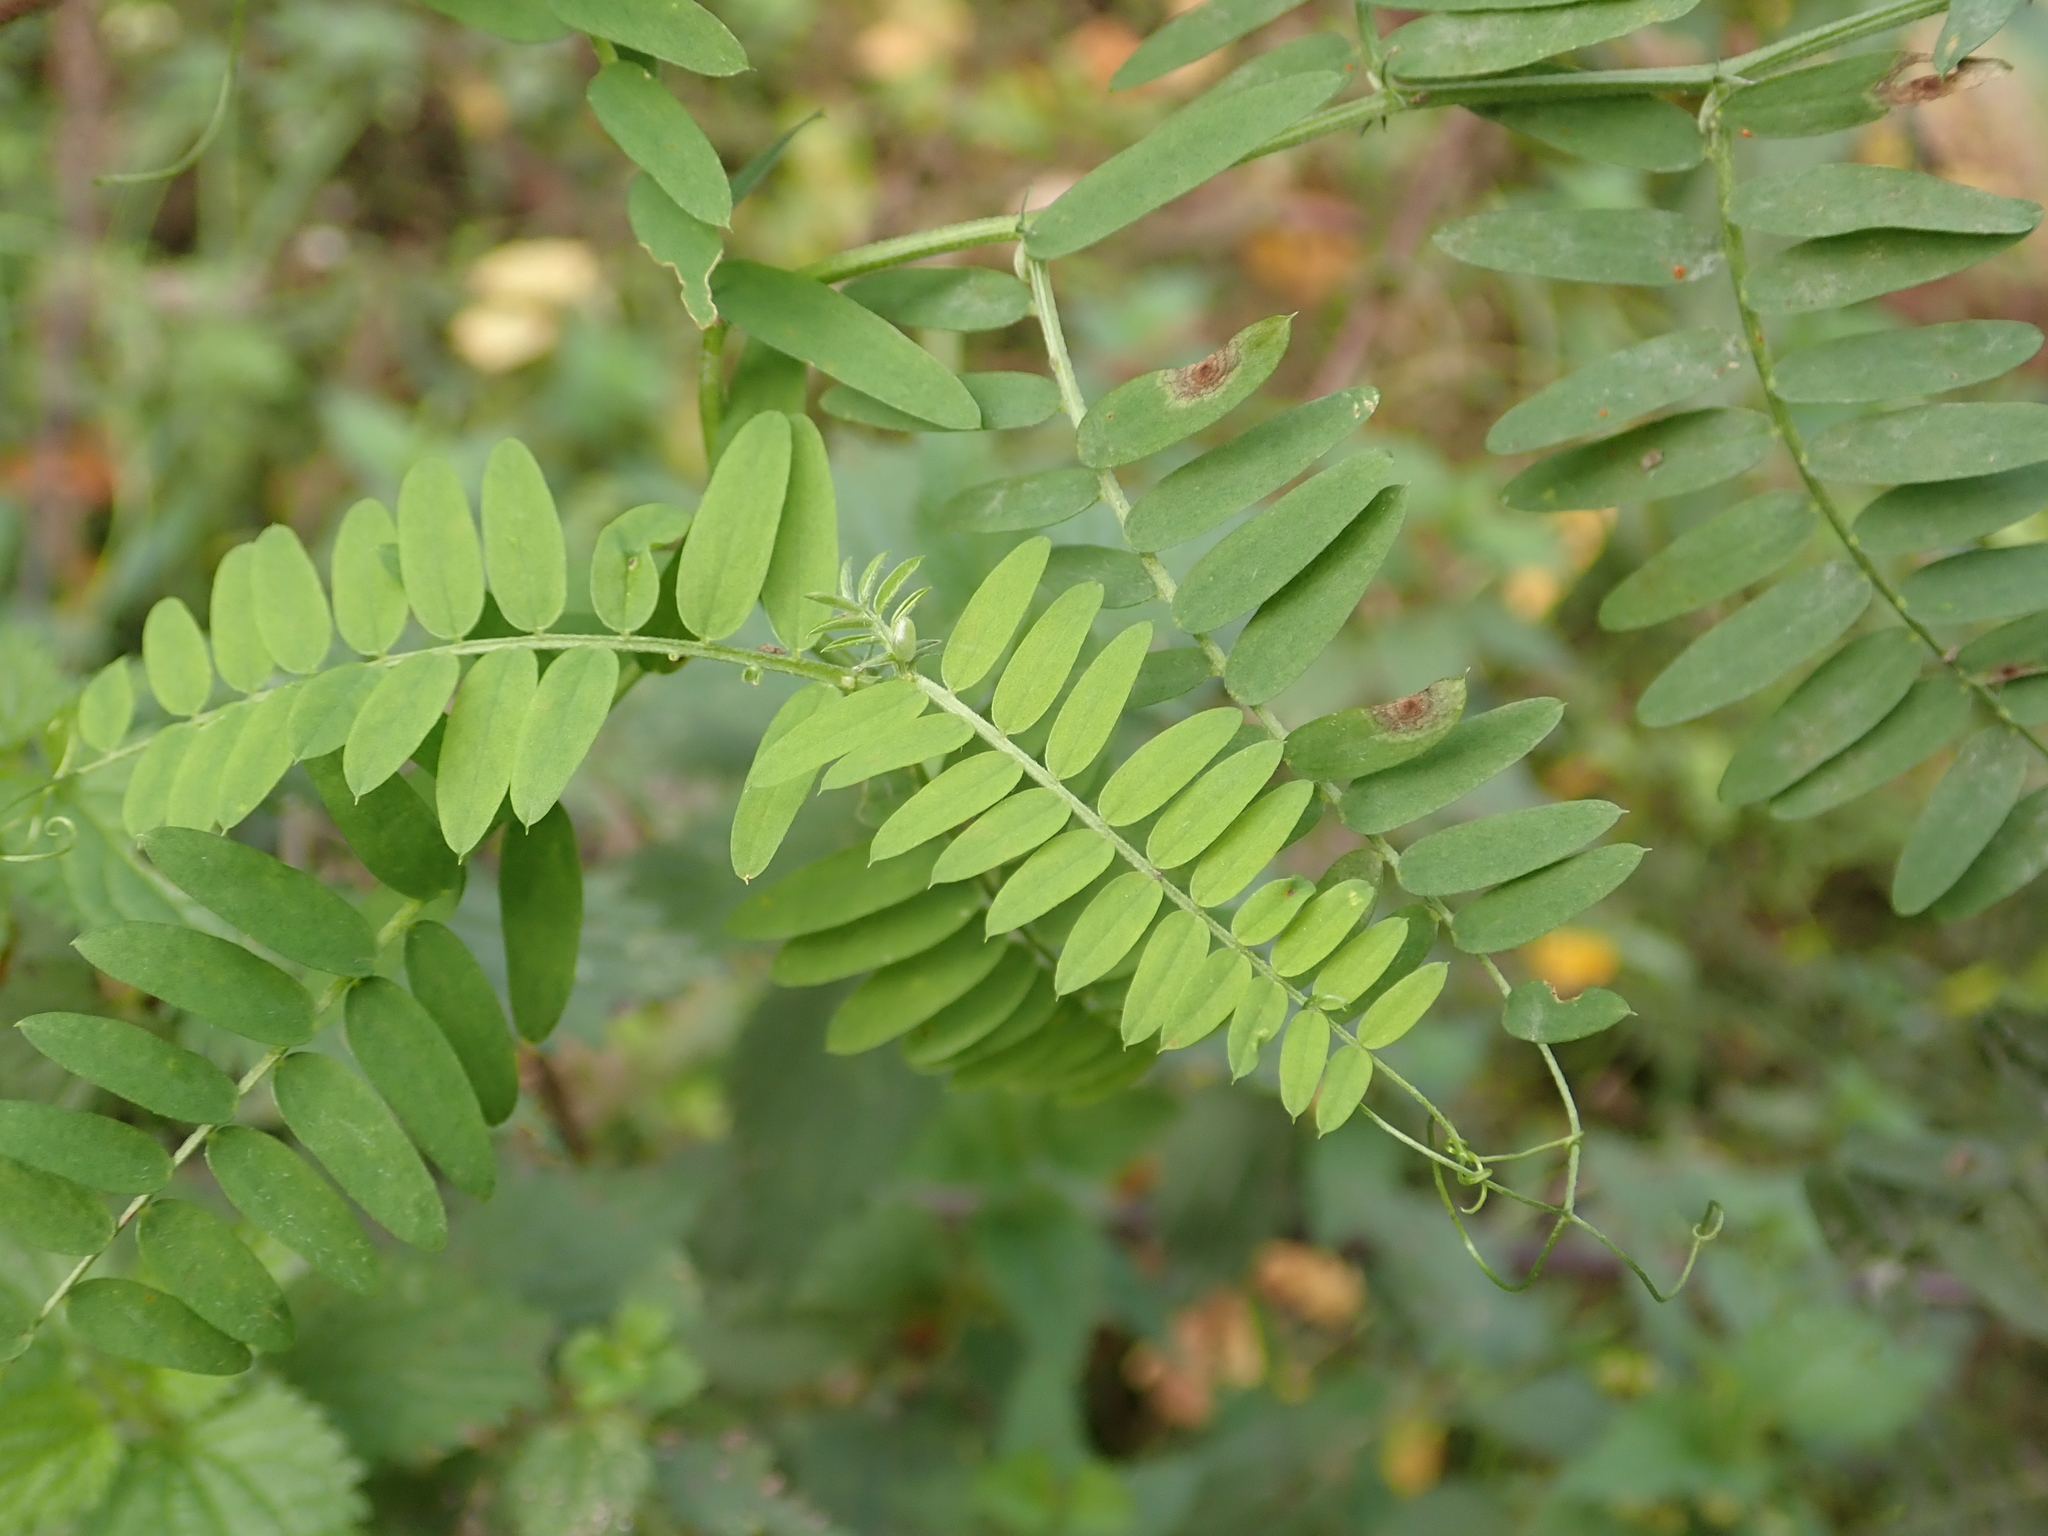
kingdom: Plantae
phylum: Tracheophyta
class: Magnoliopsida
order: Fabales
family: Fabaceae
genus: Vicia
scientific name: Vicia cracca
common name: Bird vetch
